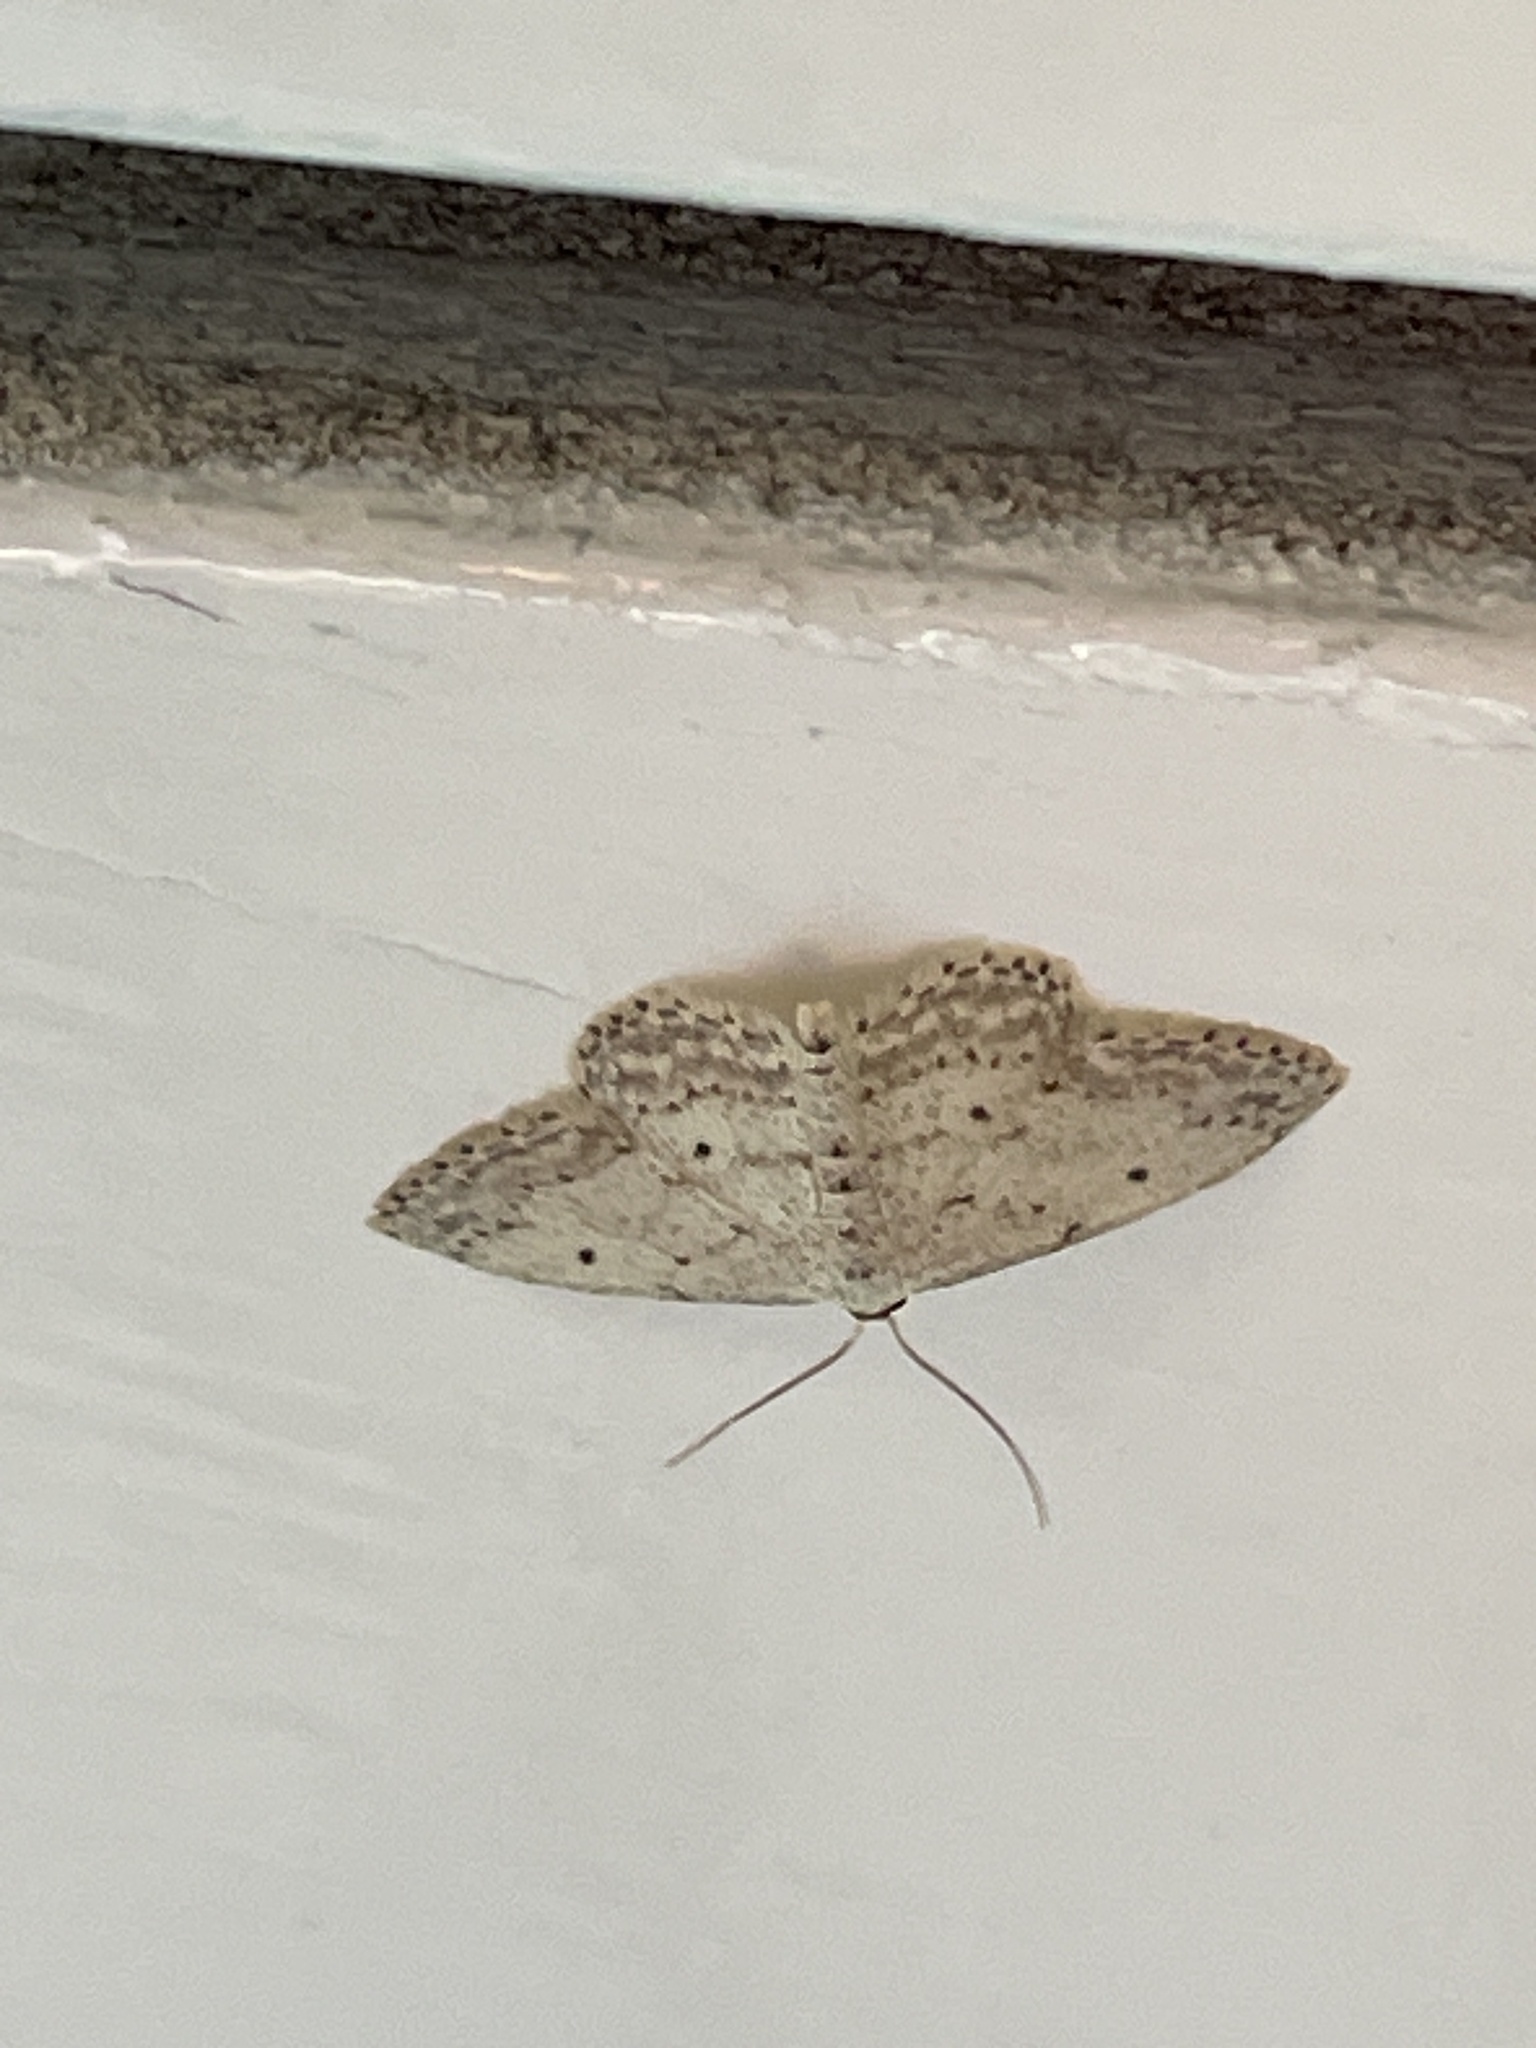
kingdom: Animalia
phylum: Arthropoda
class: Insecta
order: Lepidoptera
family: Geometridae
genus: Idaea
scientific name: Idaea seriata
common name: Small dusty wave
